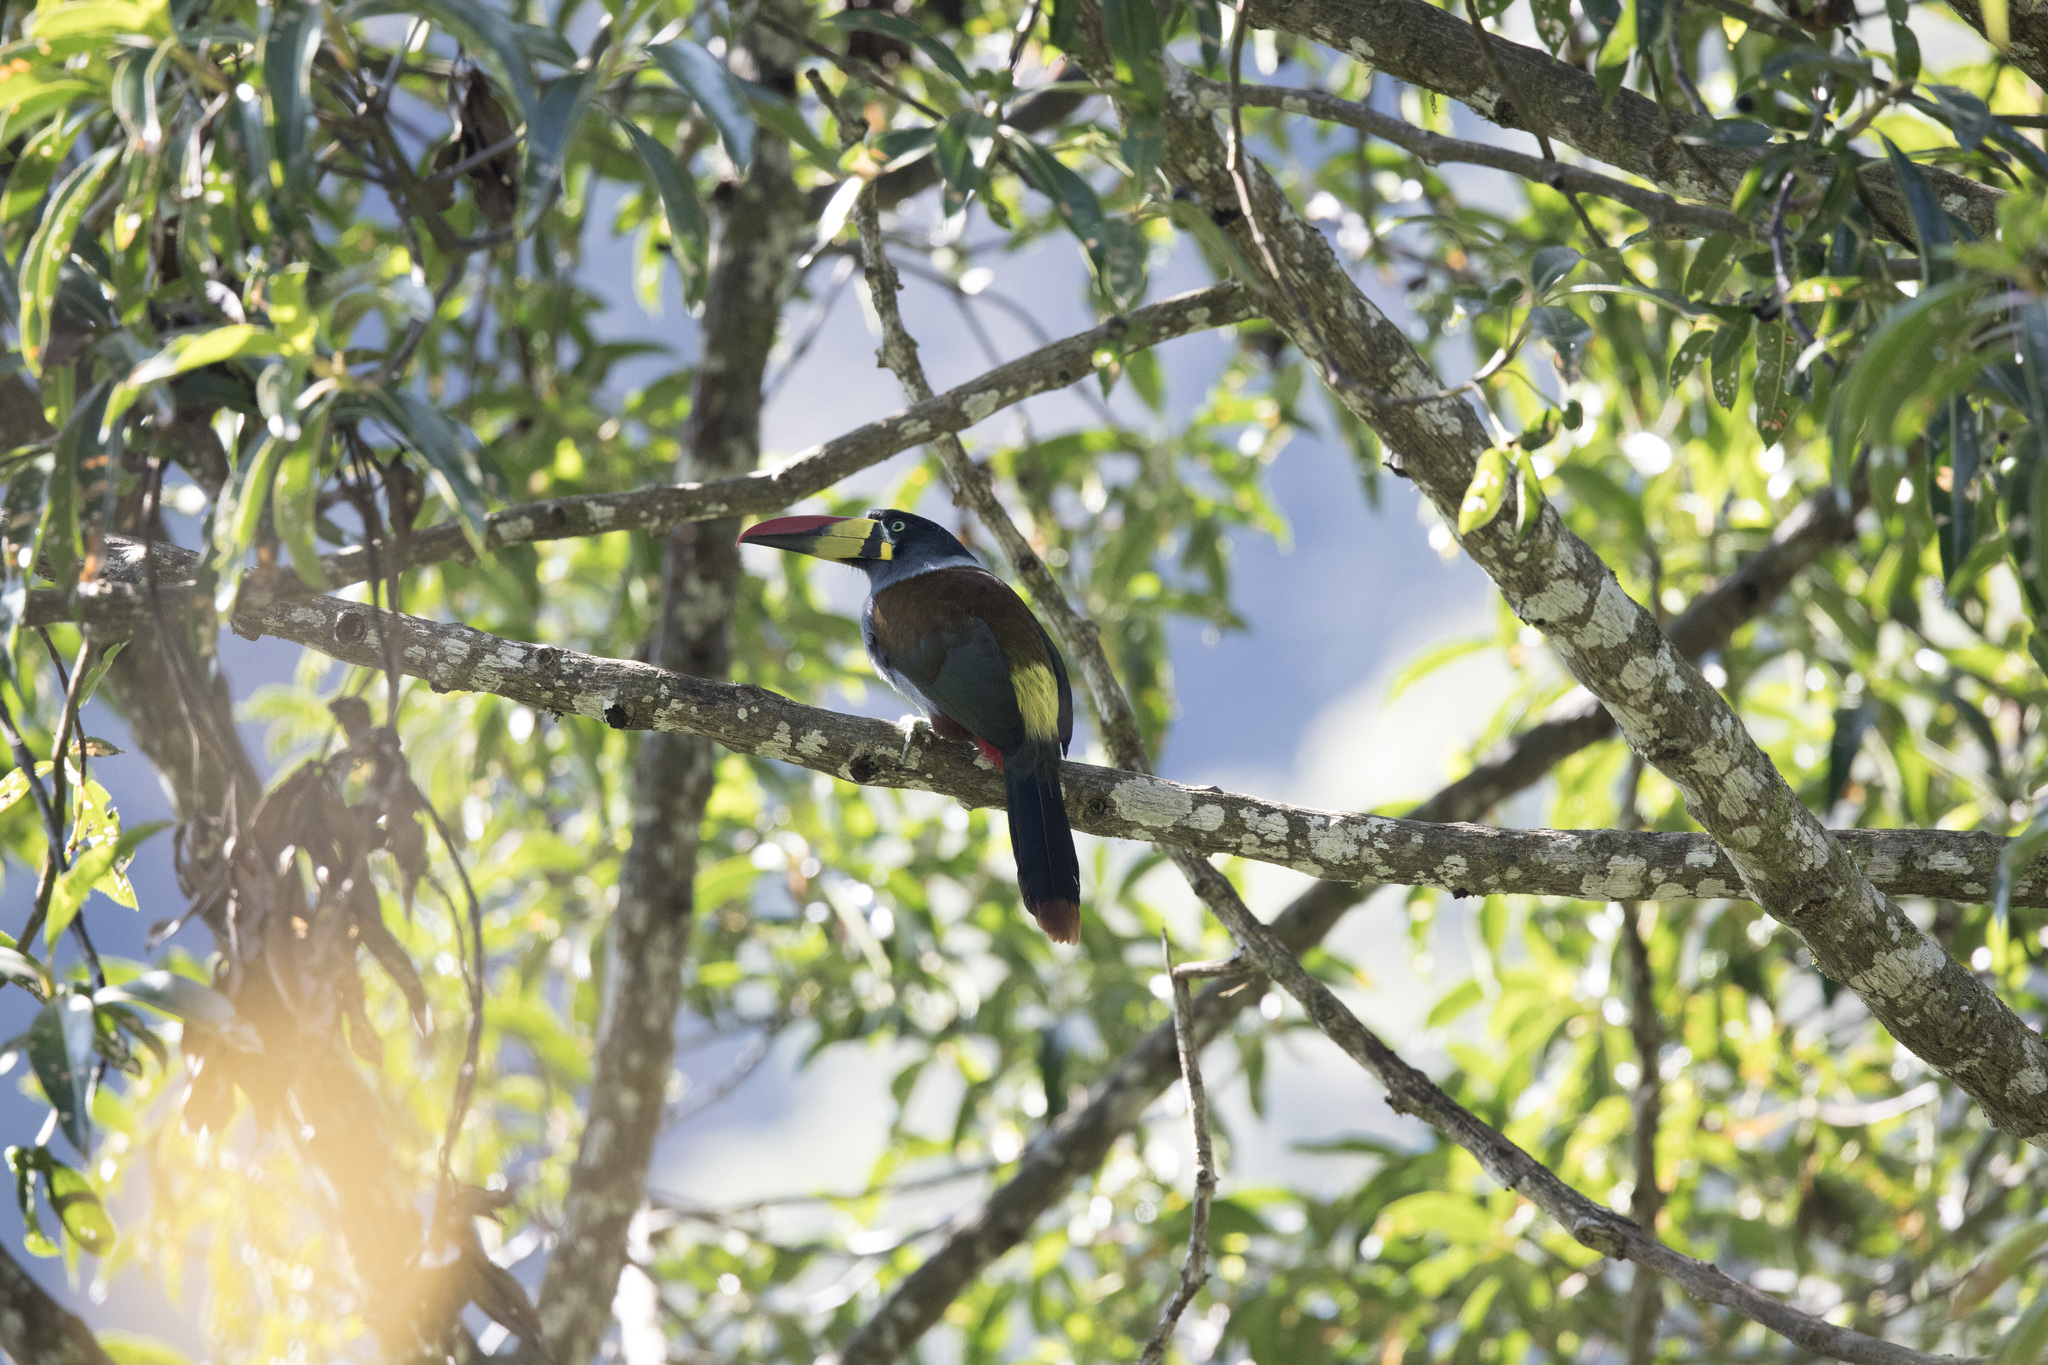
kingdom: Animalia
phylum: Chordata
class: Aves
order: Piciformes
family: Ramphastidae
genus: Andigena
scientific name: Andigena hypoglauca
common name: Grey-breasted mountain toucan
